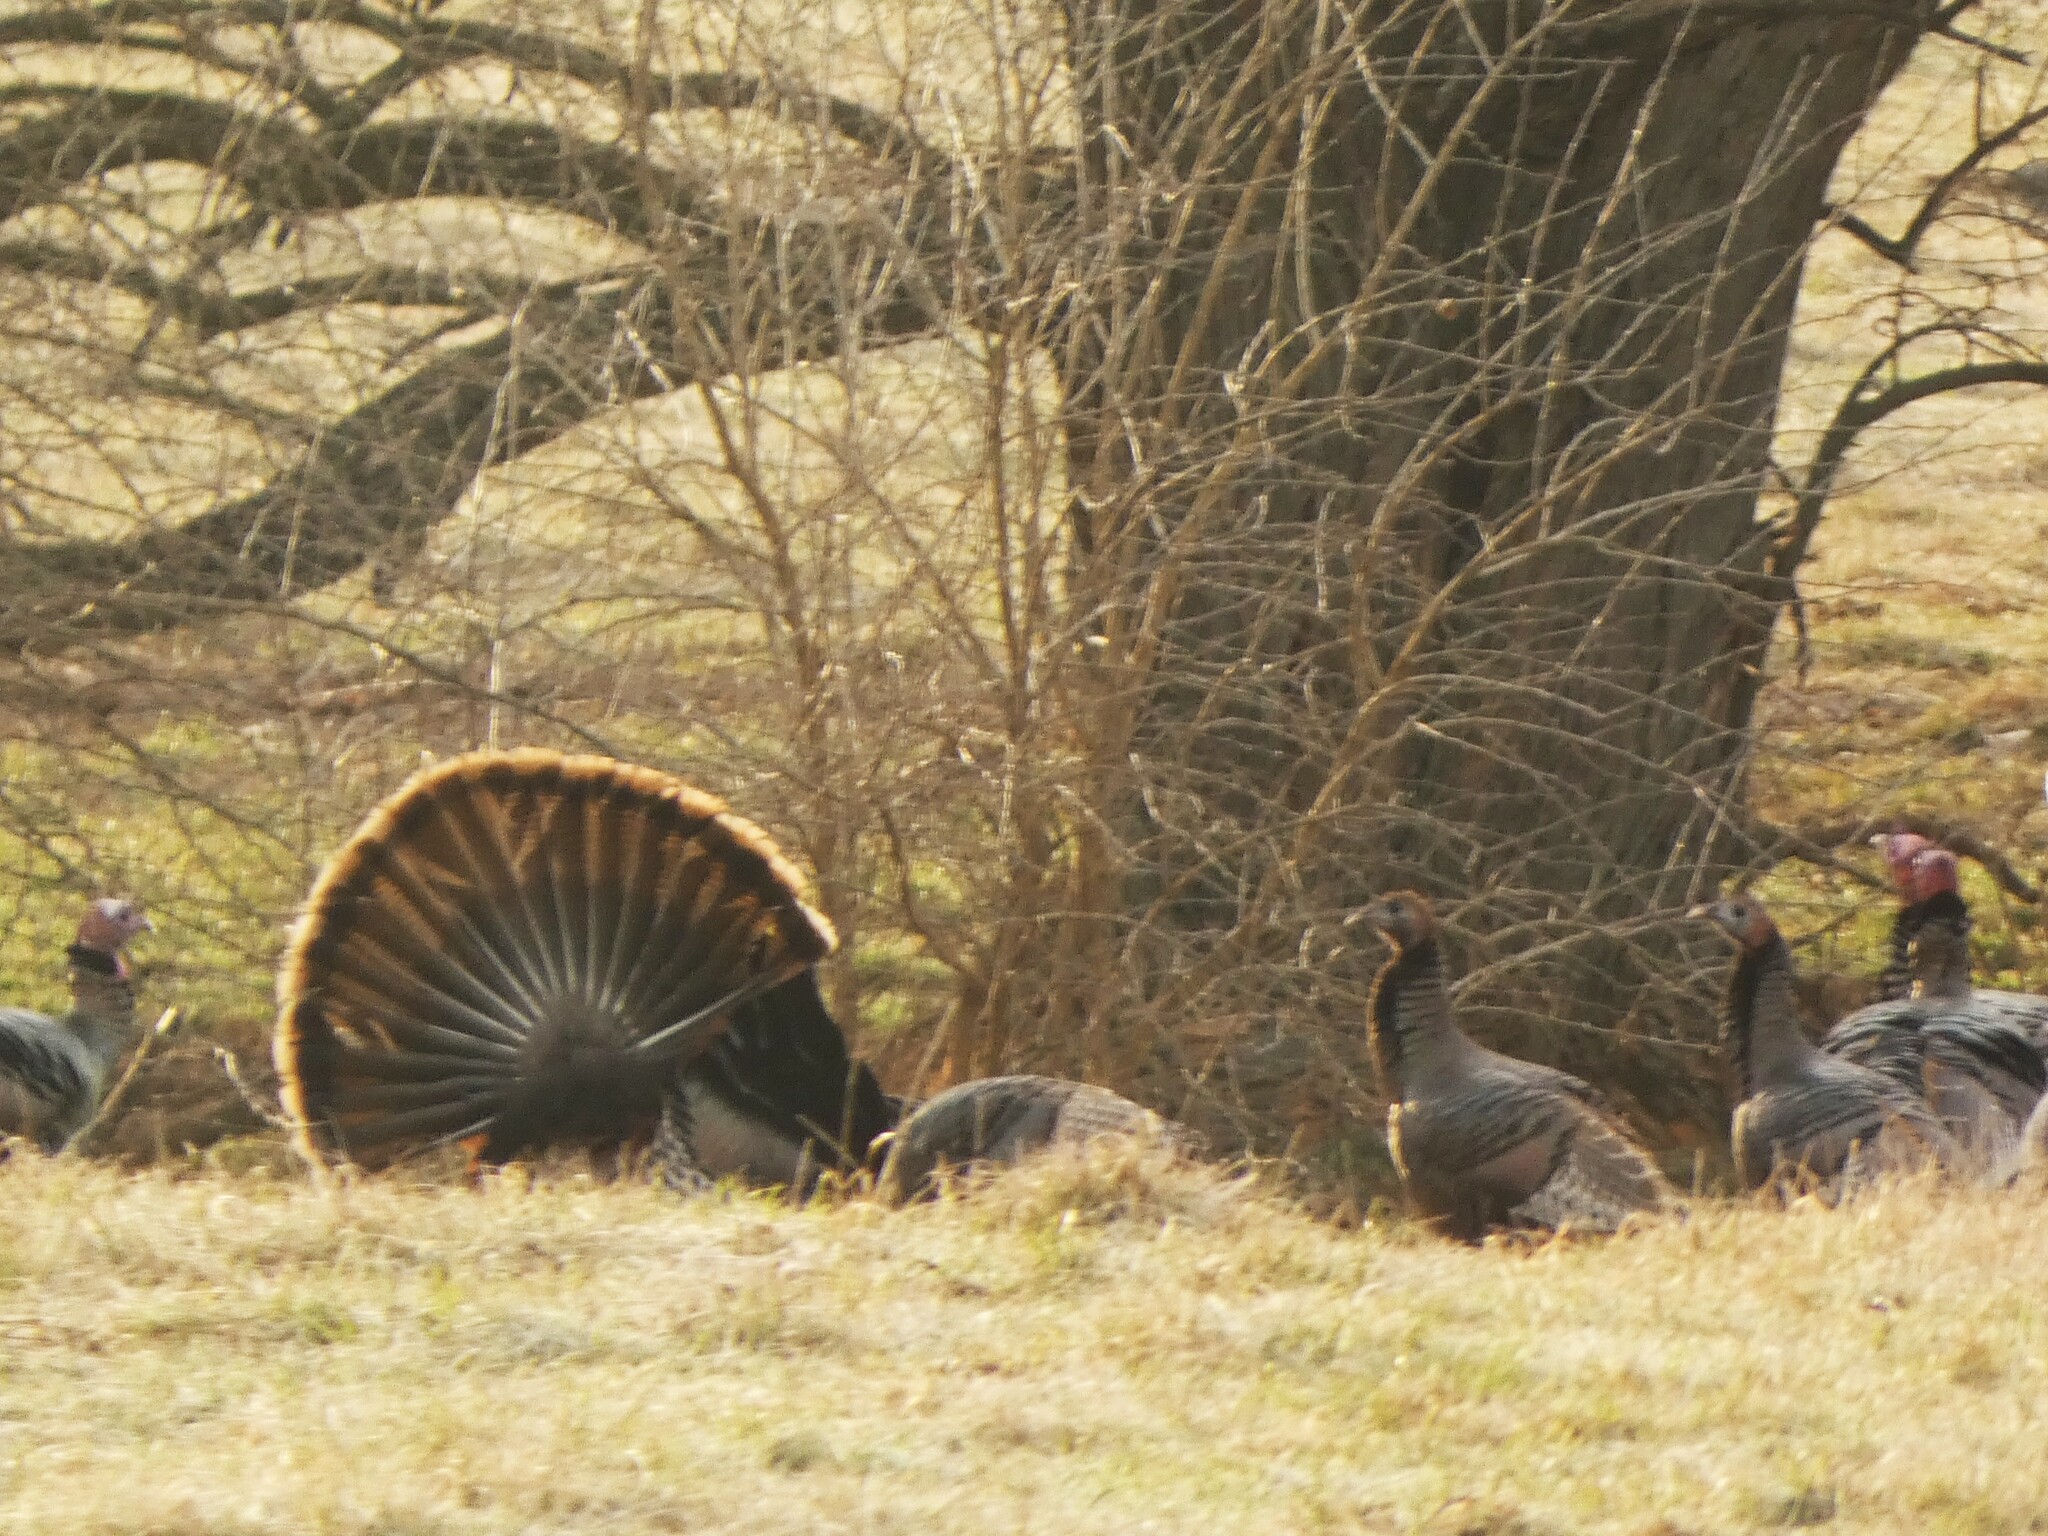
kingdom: Animalia
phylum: Chordata
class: Aves
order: Galliformes
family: Phasianidae
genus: Meleagris
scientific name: Meleagris gallopavo
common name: Wild turkey
